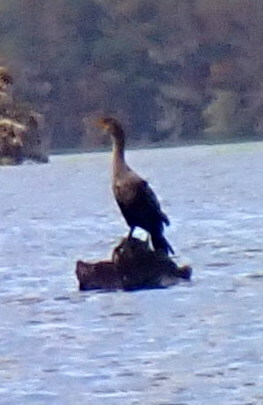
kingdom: Animalia
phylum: Chordata
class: Aves
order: Suliformes
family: Phalacrocoracidae
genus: Phalacrocorax
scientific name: Phalacrocorax auritus
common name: Double-crested cormorant
